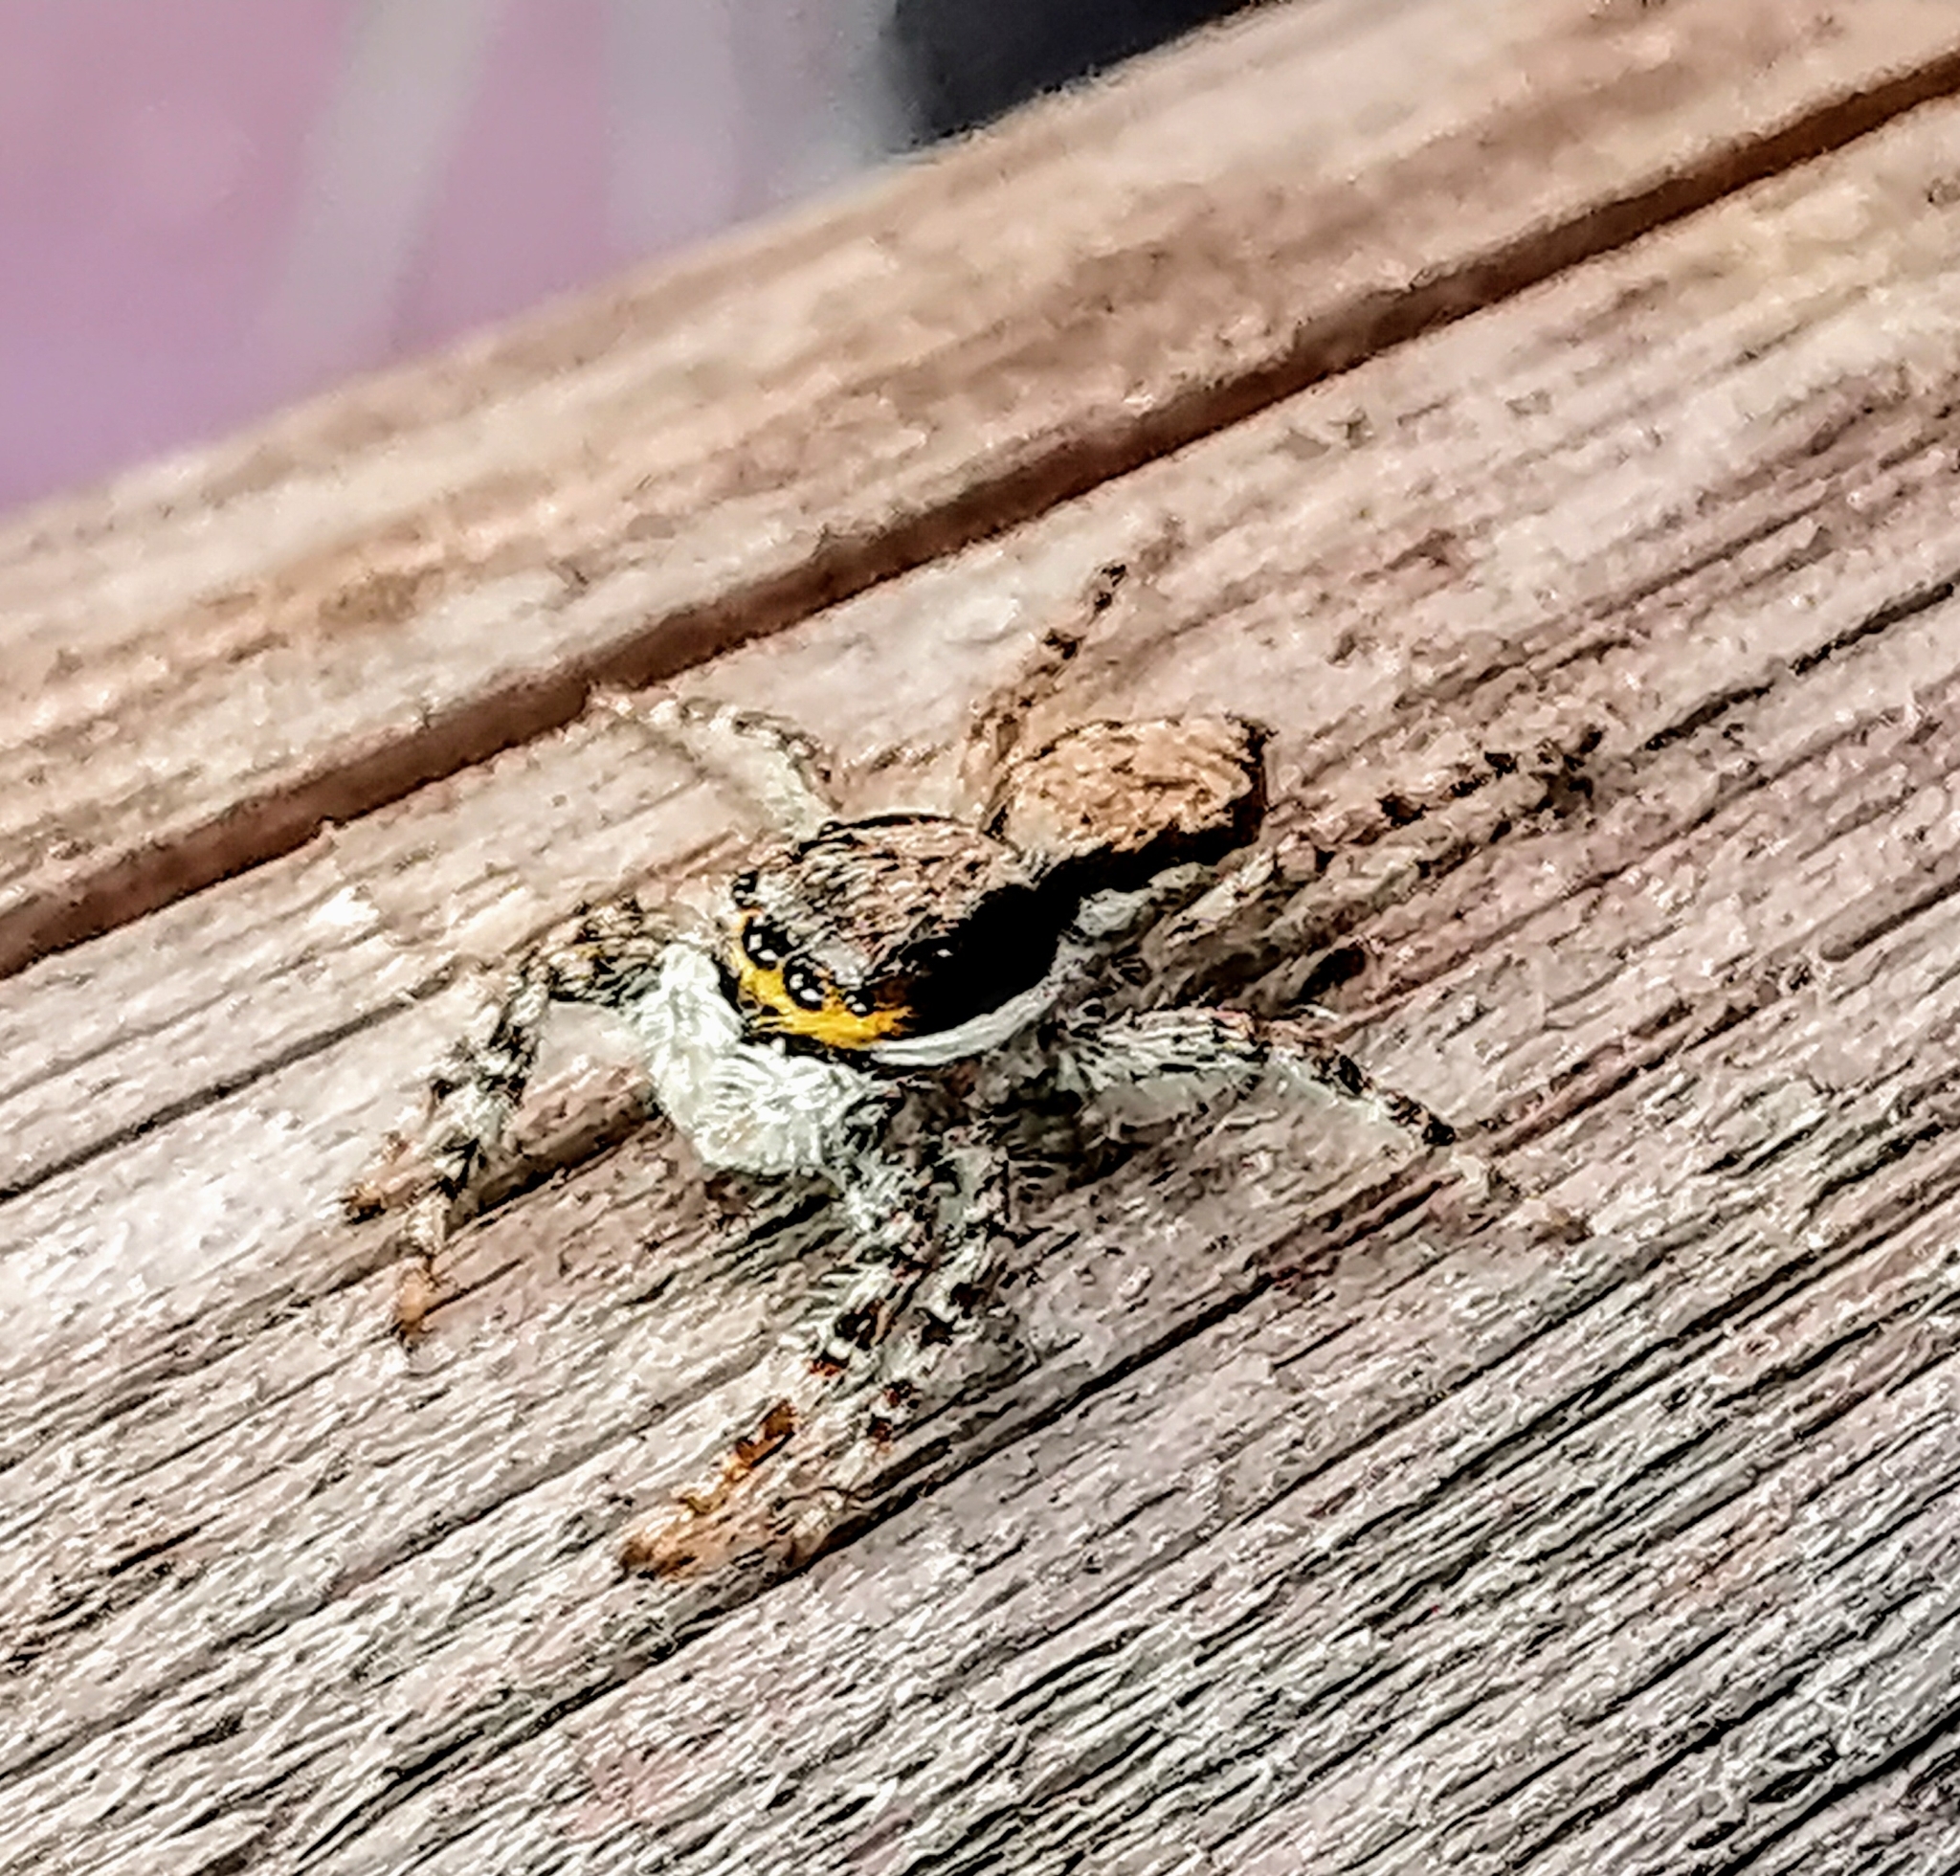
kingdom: Animalia
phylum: Arthropoda
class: Arachnida
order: Araneae
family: Salticidae
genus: Menemerus
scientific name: Menemerus bivittatus
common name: Gray wall jumper
